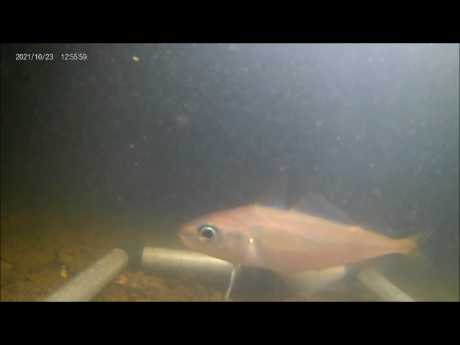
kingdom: Animalia
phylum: Chordata
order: Gadiformes
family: Gadidae
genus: Trisopterus
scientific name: Trisopterus minutus
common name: Poor cod
